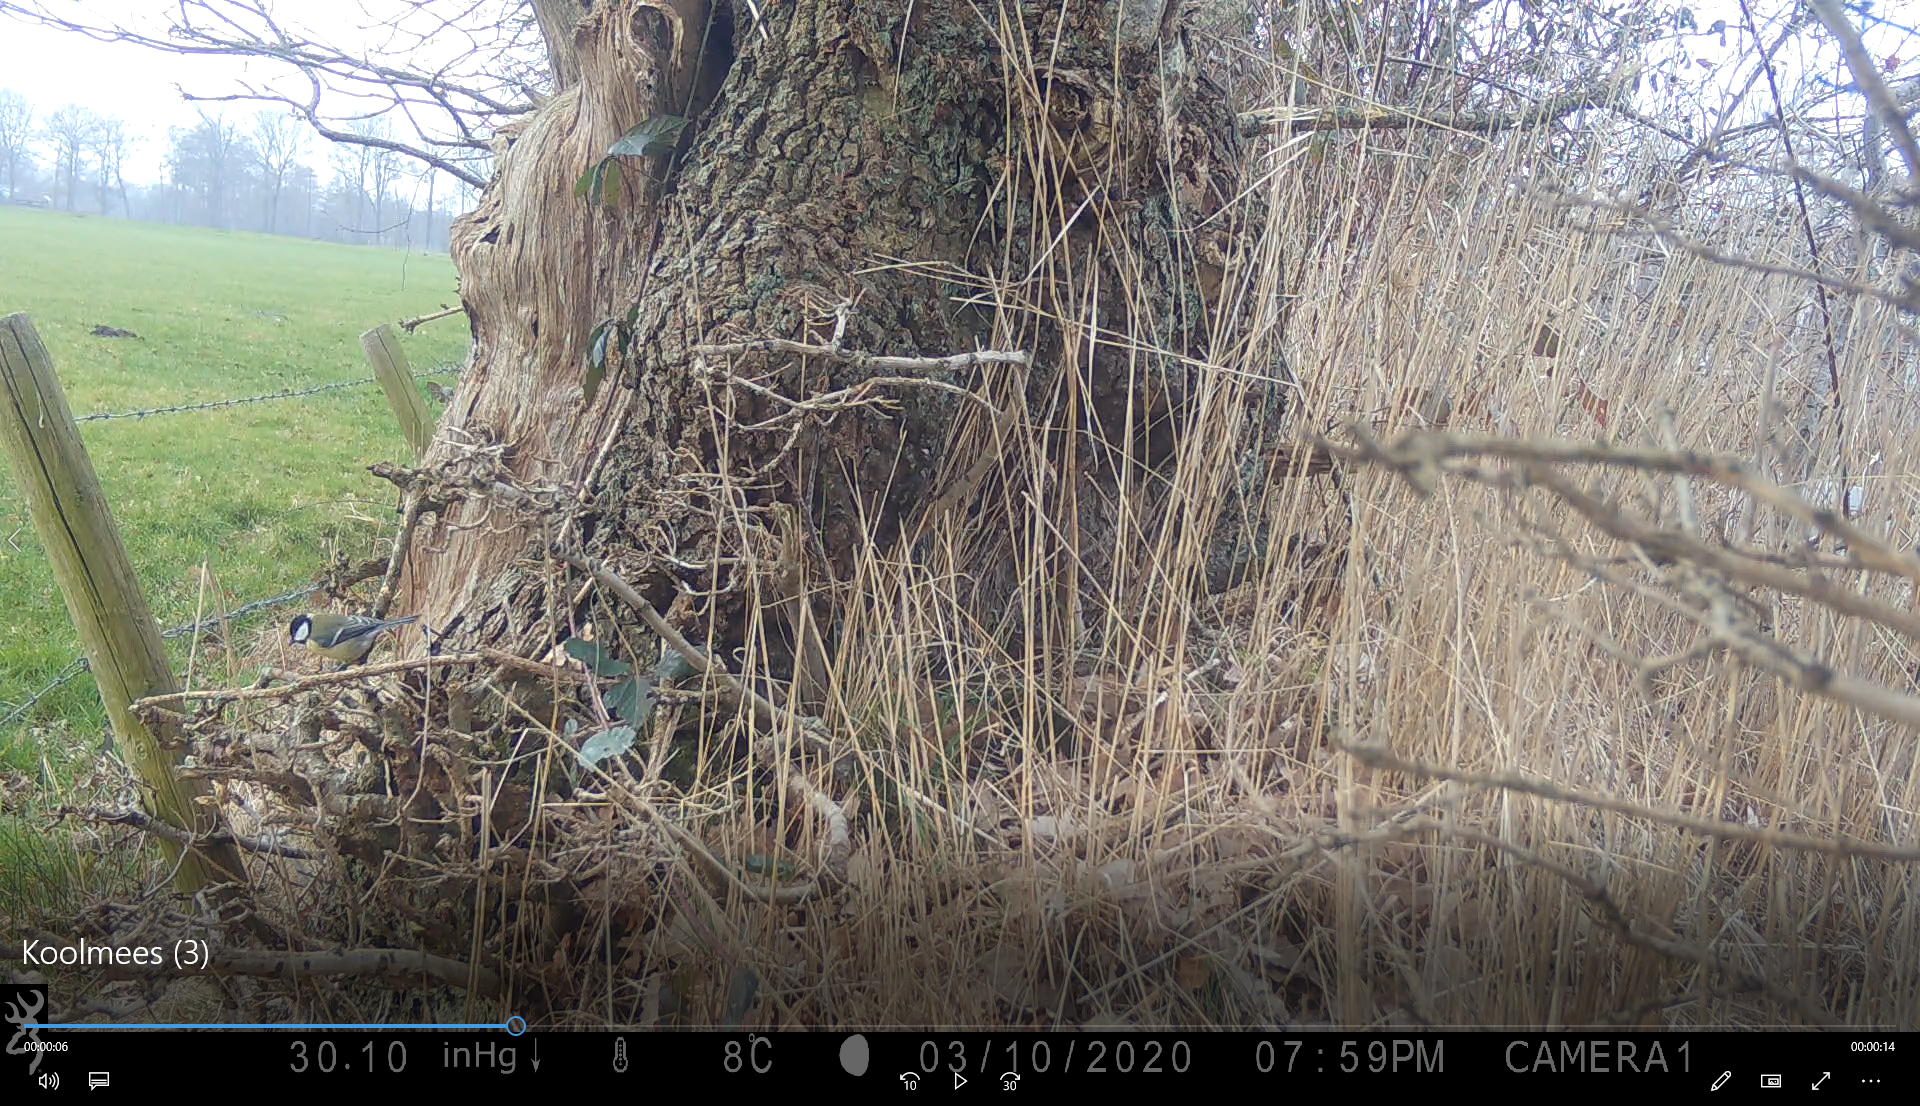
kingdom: Animalia
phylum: Chordata
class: Aves
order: Passeriformes
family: Paridae
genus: Parus
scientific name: Parus major
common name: Great tit
